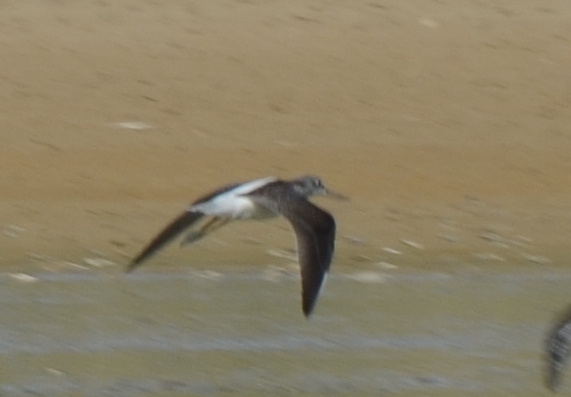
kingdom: Animalia
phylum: Chordata
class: Aves
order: Charadriiformes
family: Scolopacidae
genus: Tringa
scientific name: Tringa nebularia
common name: Common greenshank
